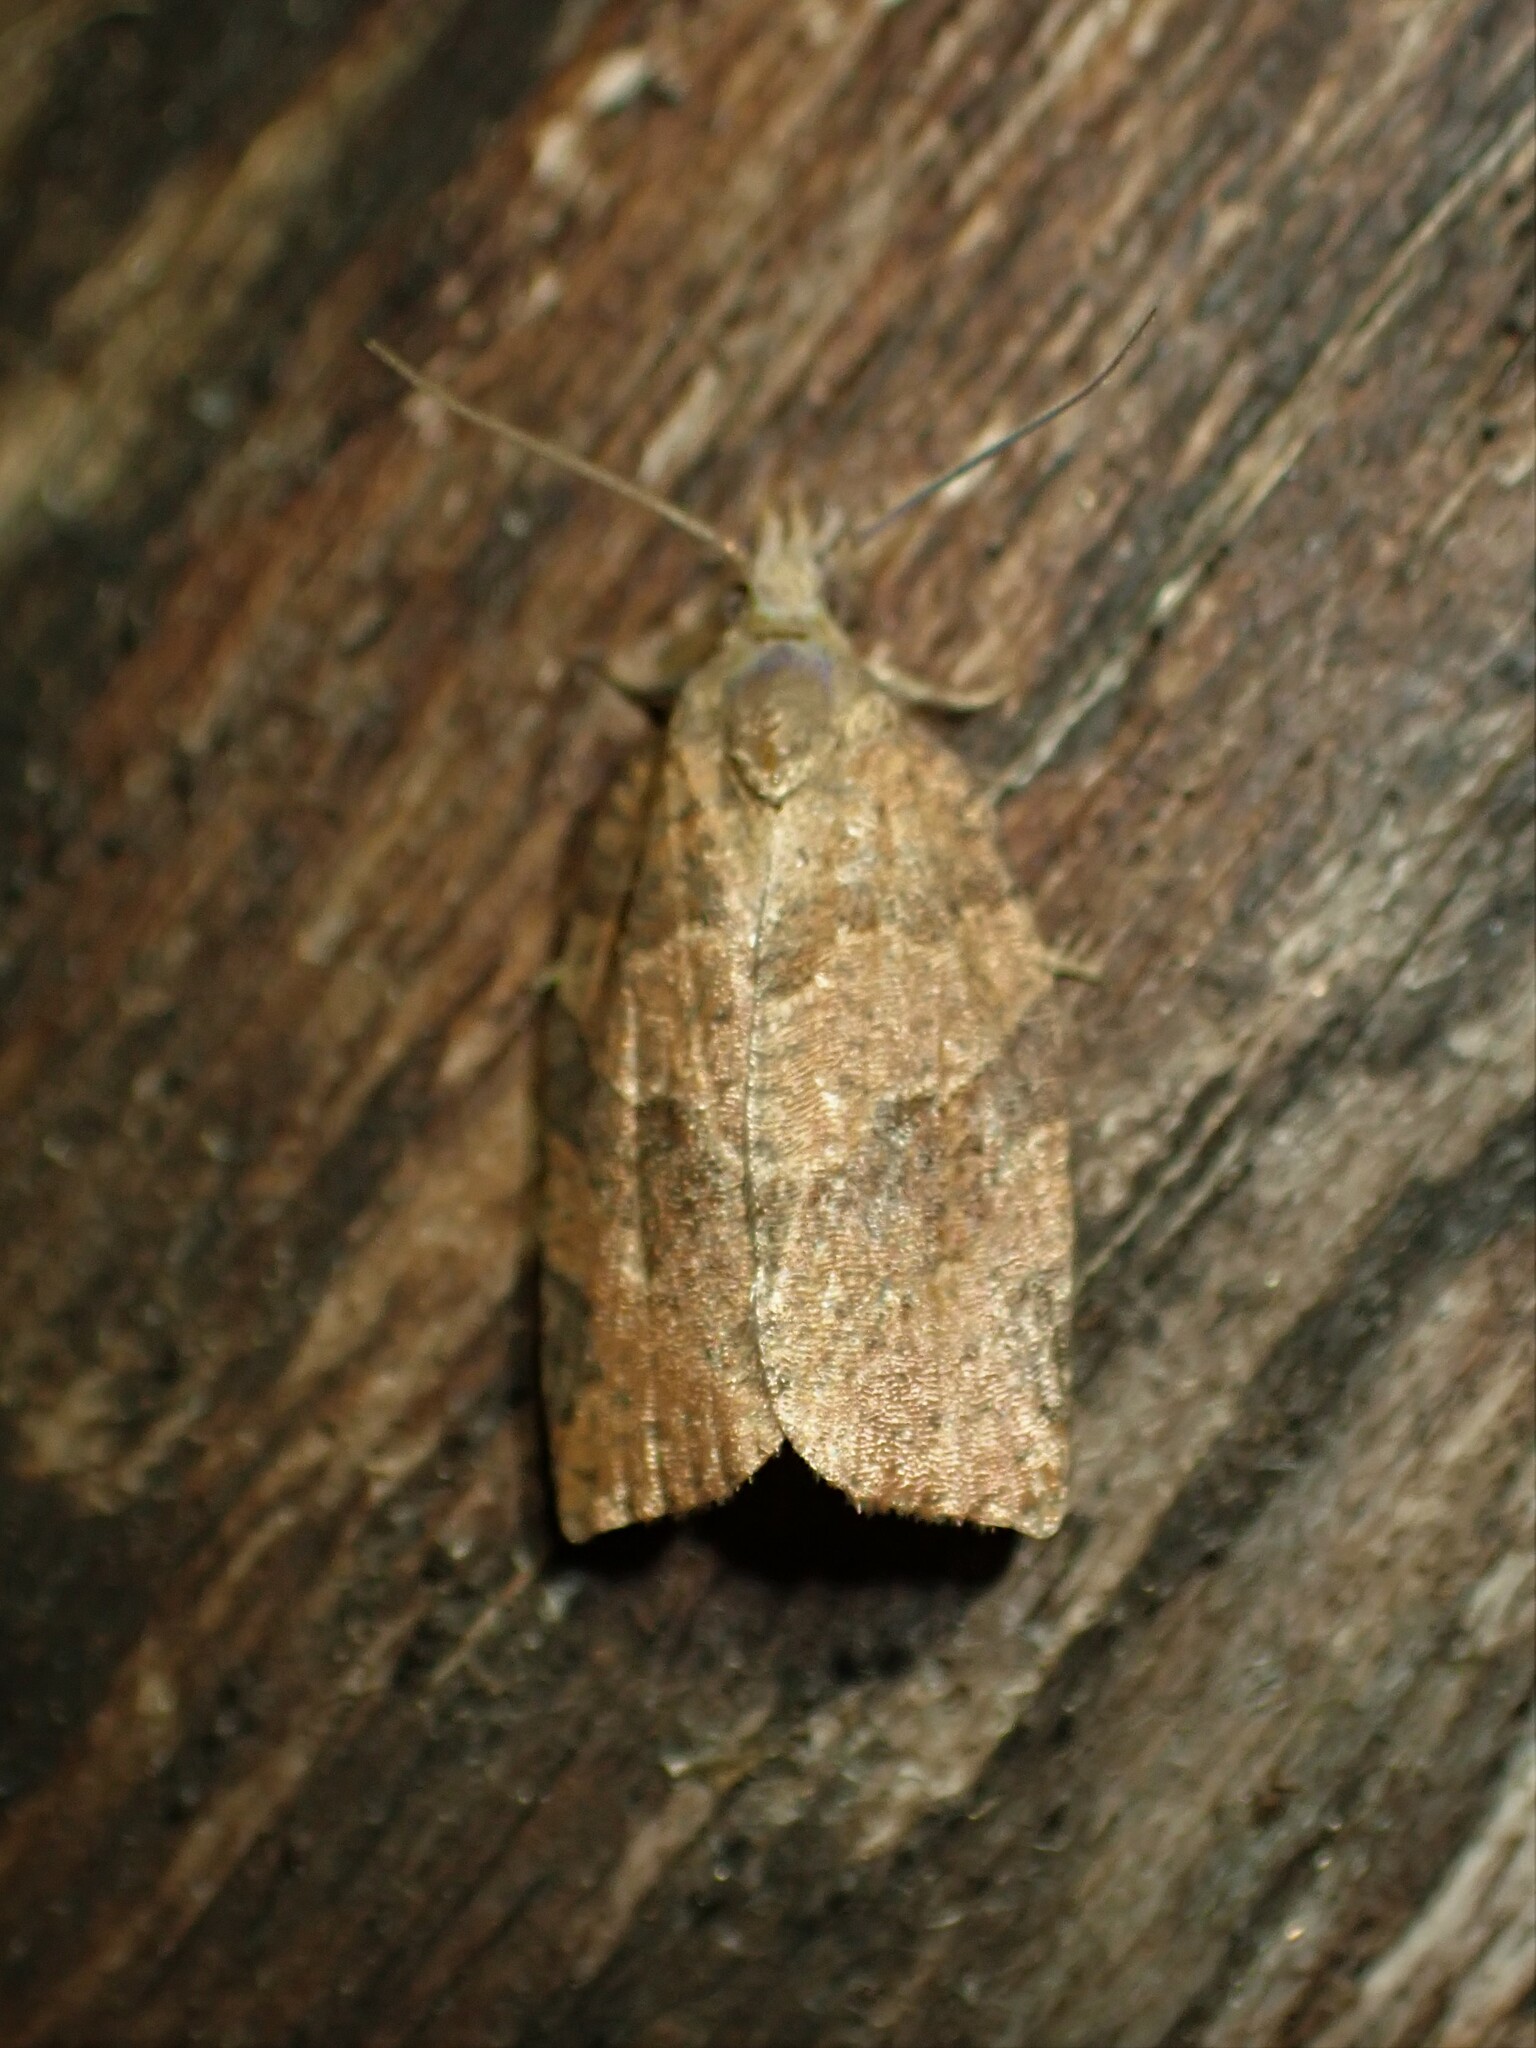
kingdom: Animalia
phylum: Arthropoda
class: Insecta
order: Lepidoptera
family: Tortricidae
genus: Pandemis
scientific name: Pandemis canadana
